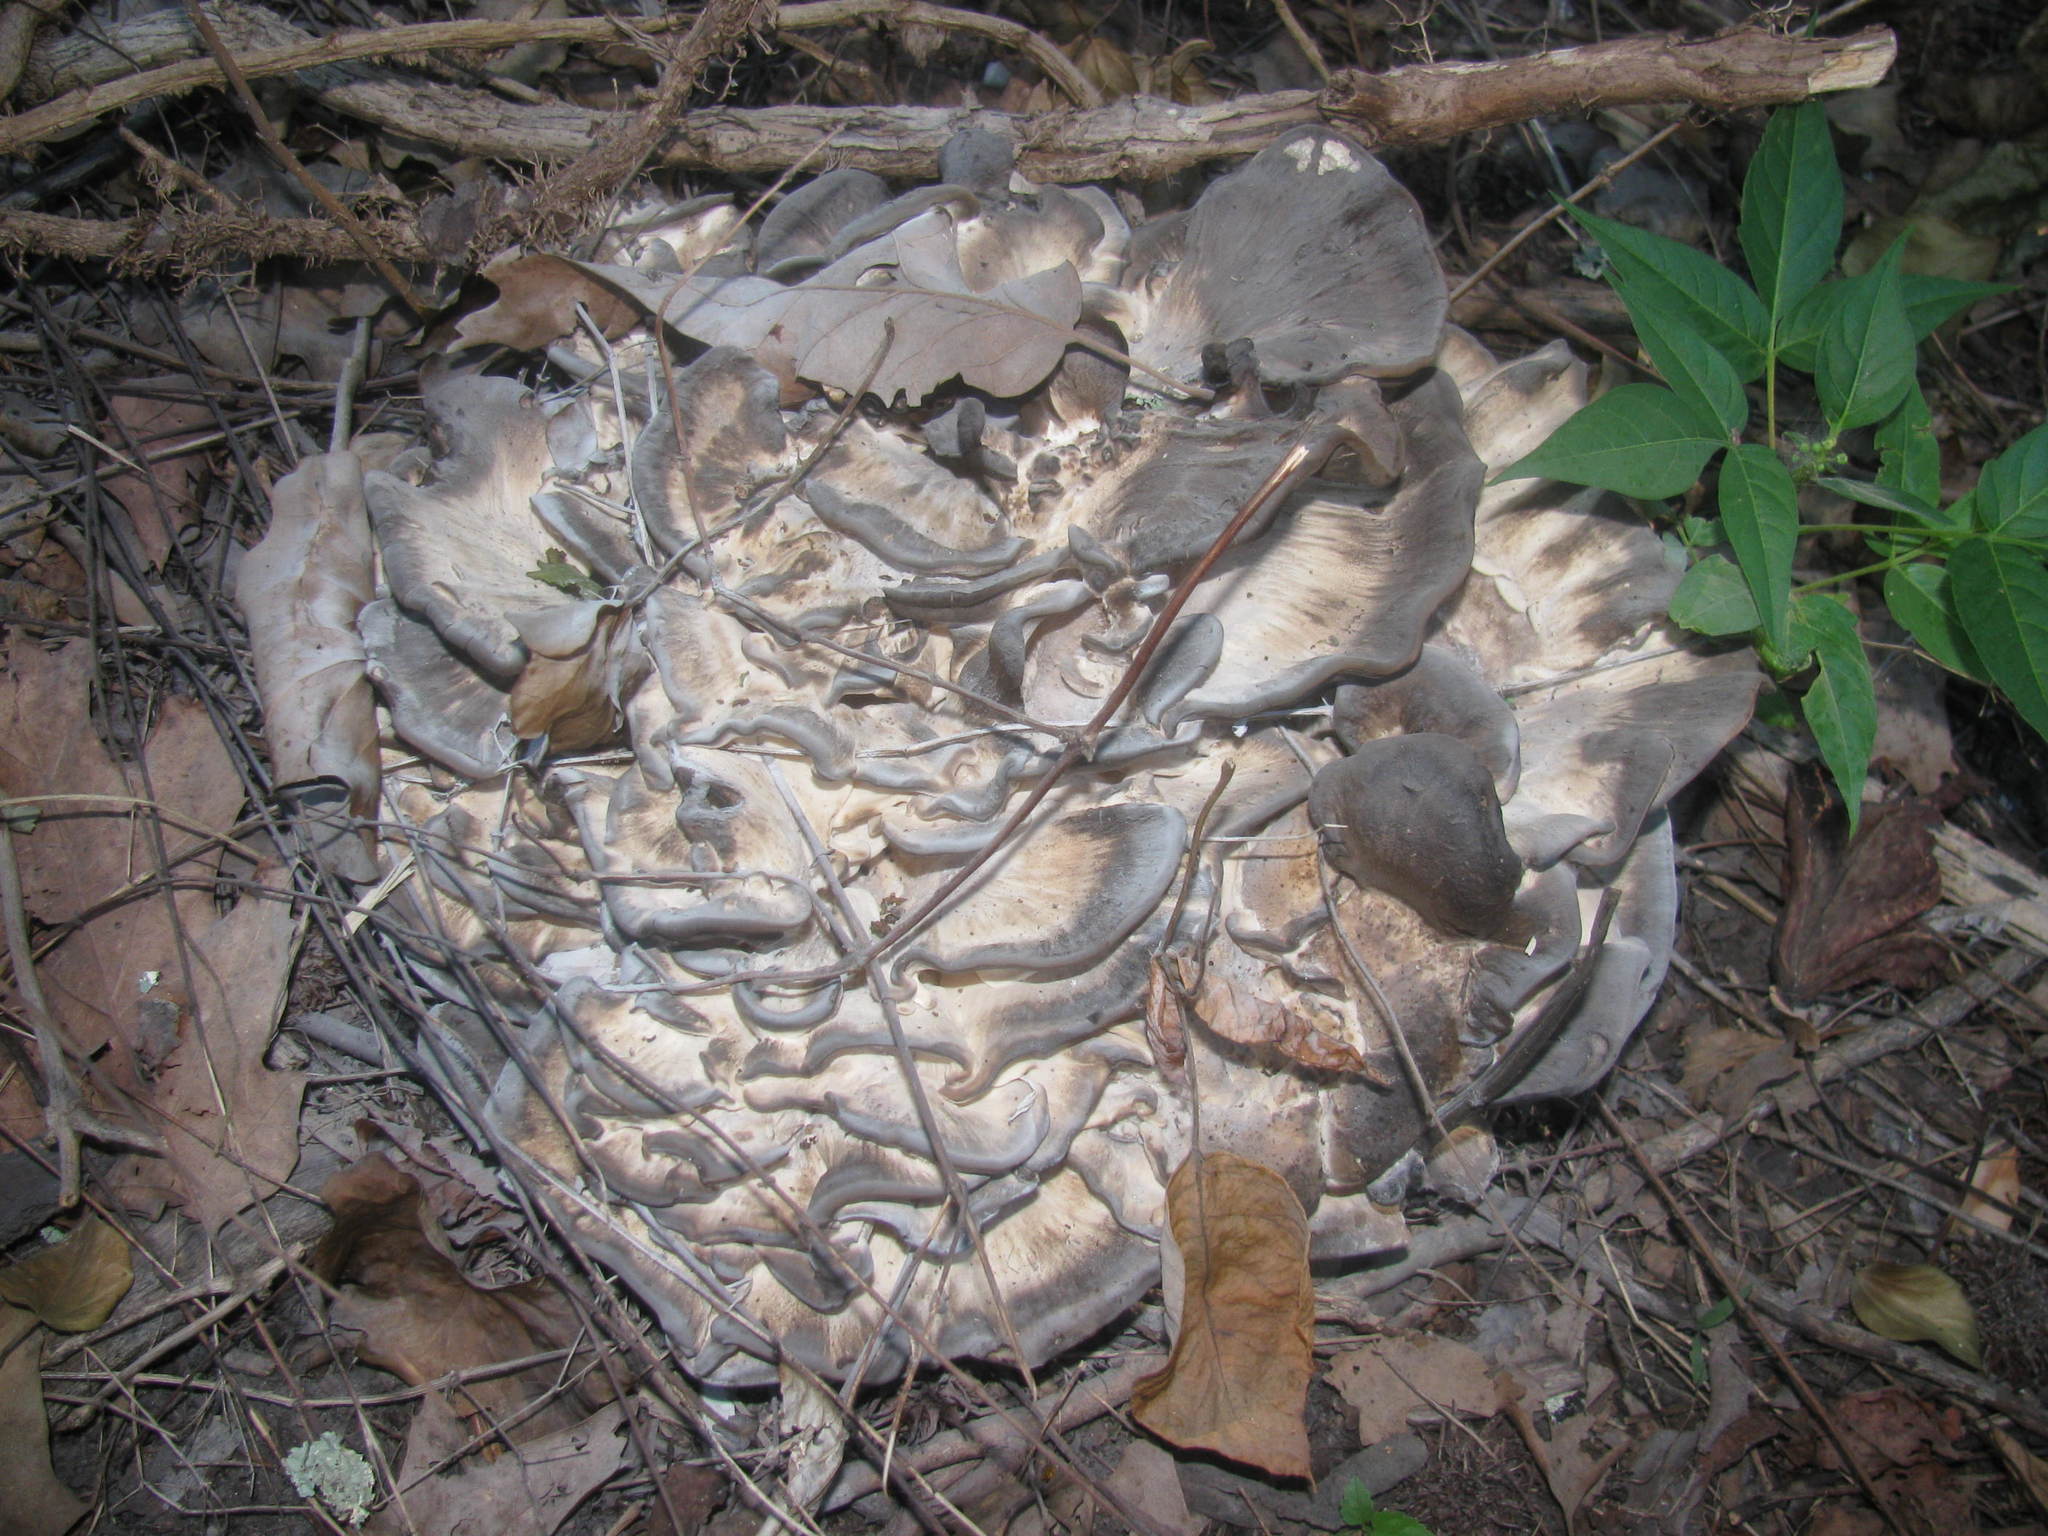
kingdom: Fungi
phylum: Basidiomycota
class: Agaricomycetes
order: Polyporales
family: Meripilaceae
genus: Meripilus
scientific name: Meripilus sumstinei
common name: Black-staining polypore
